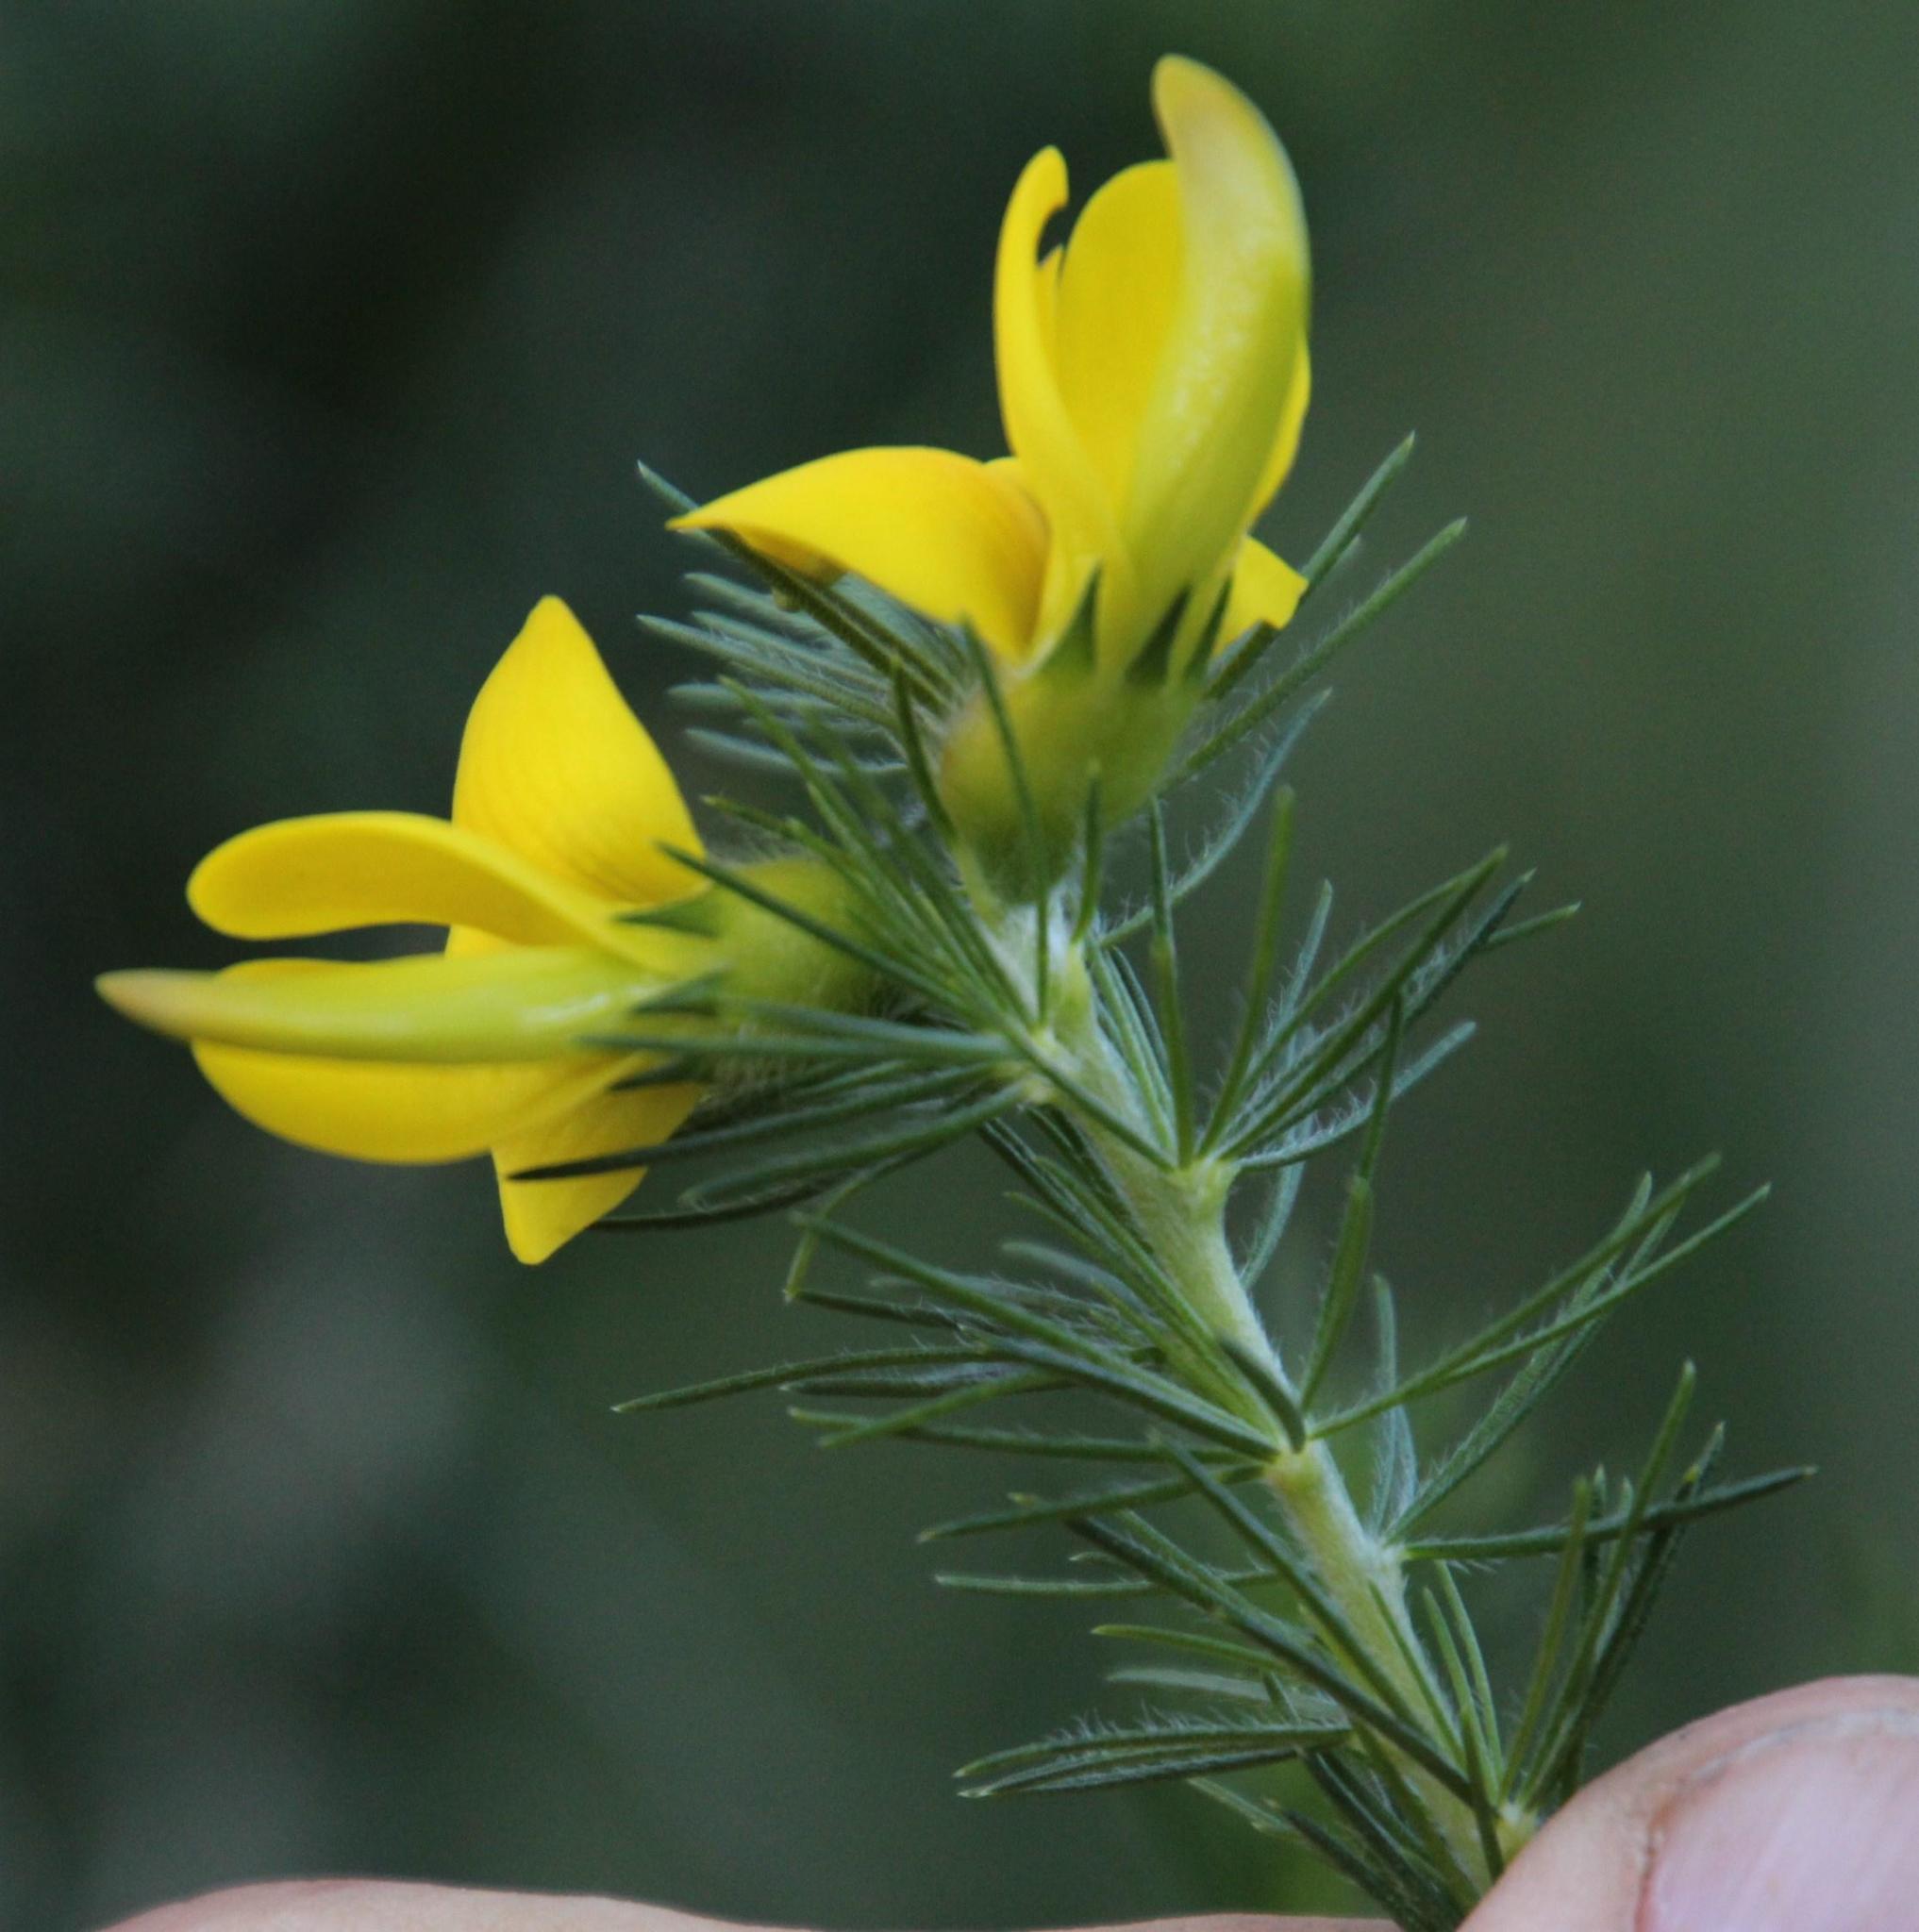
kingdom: Plantae
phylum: Tracheophyta
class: Magnoliopsida
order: Fabales
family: Fabaceae
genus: Aspalathus
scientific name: Aspalathus macrantha
